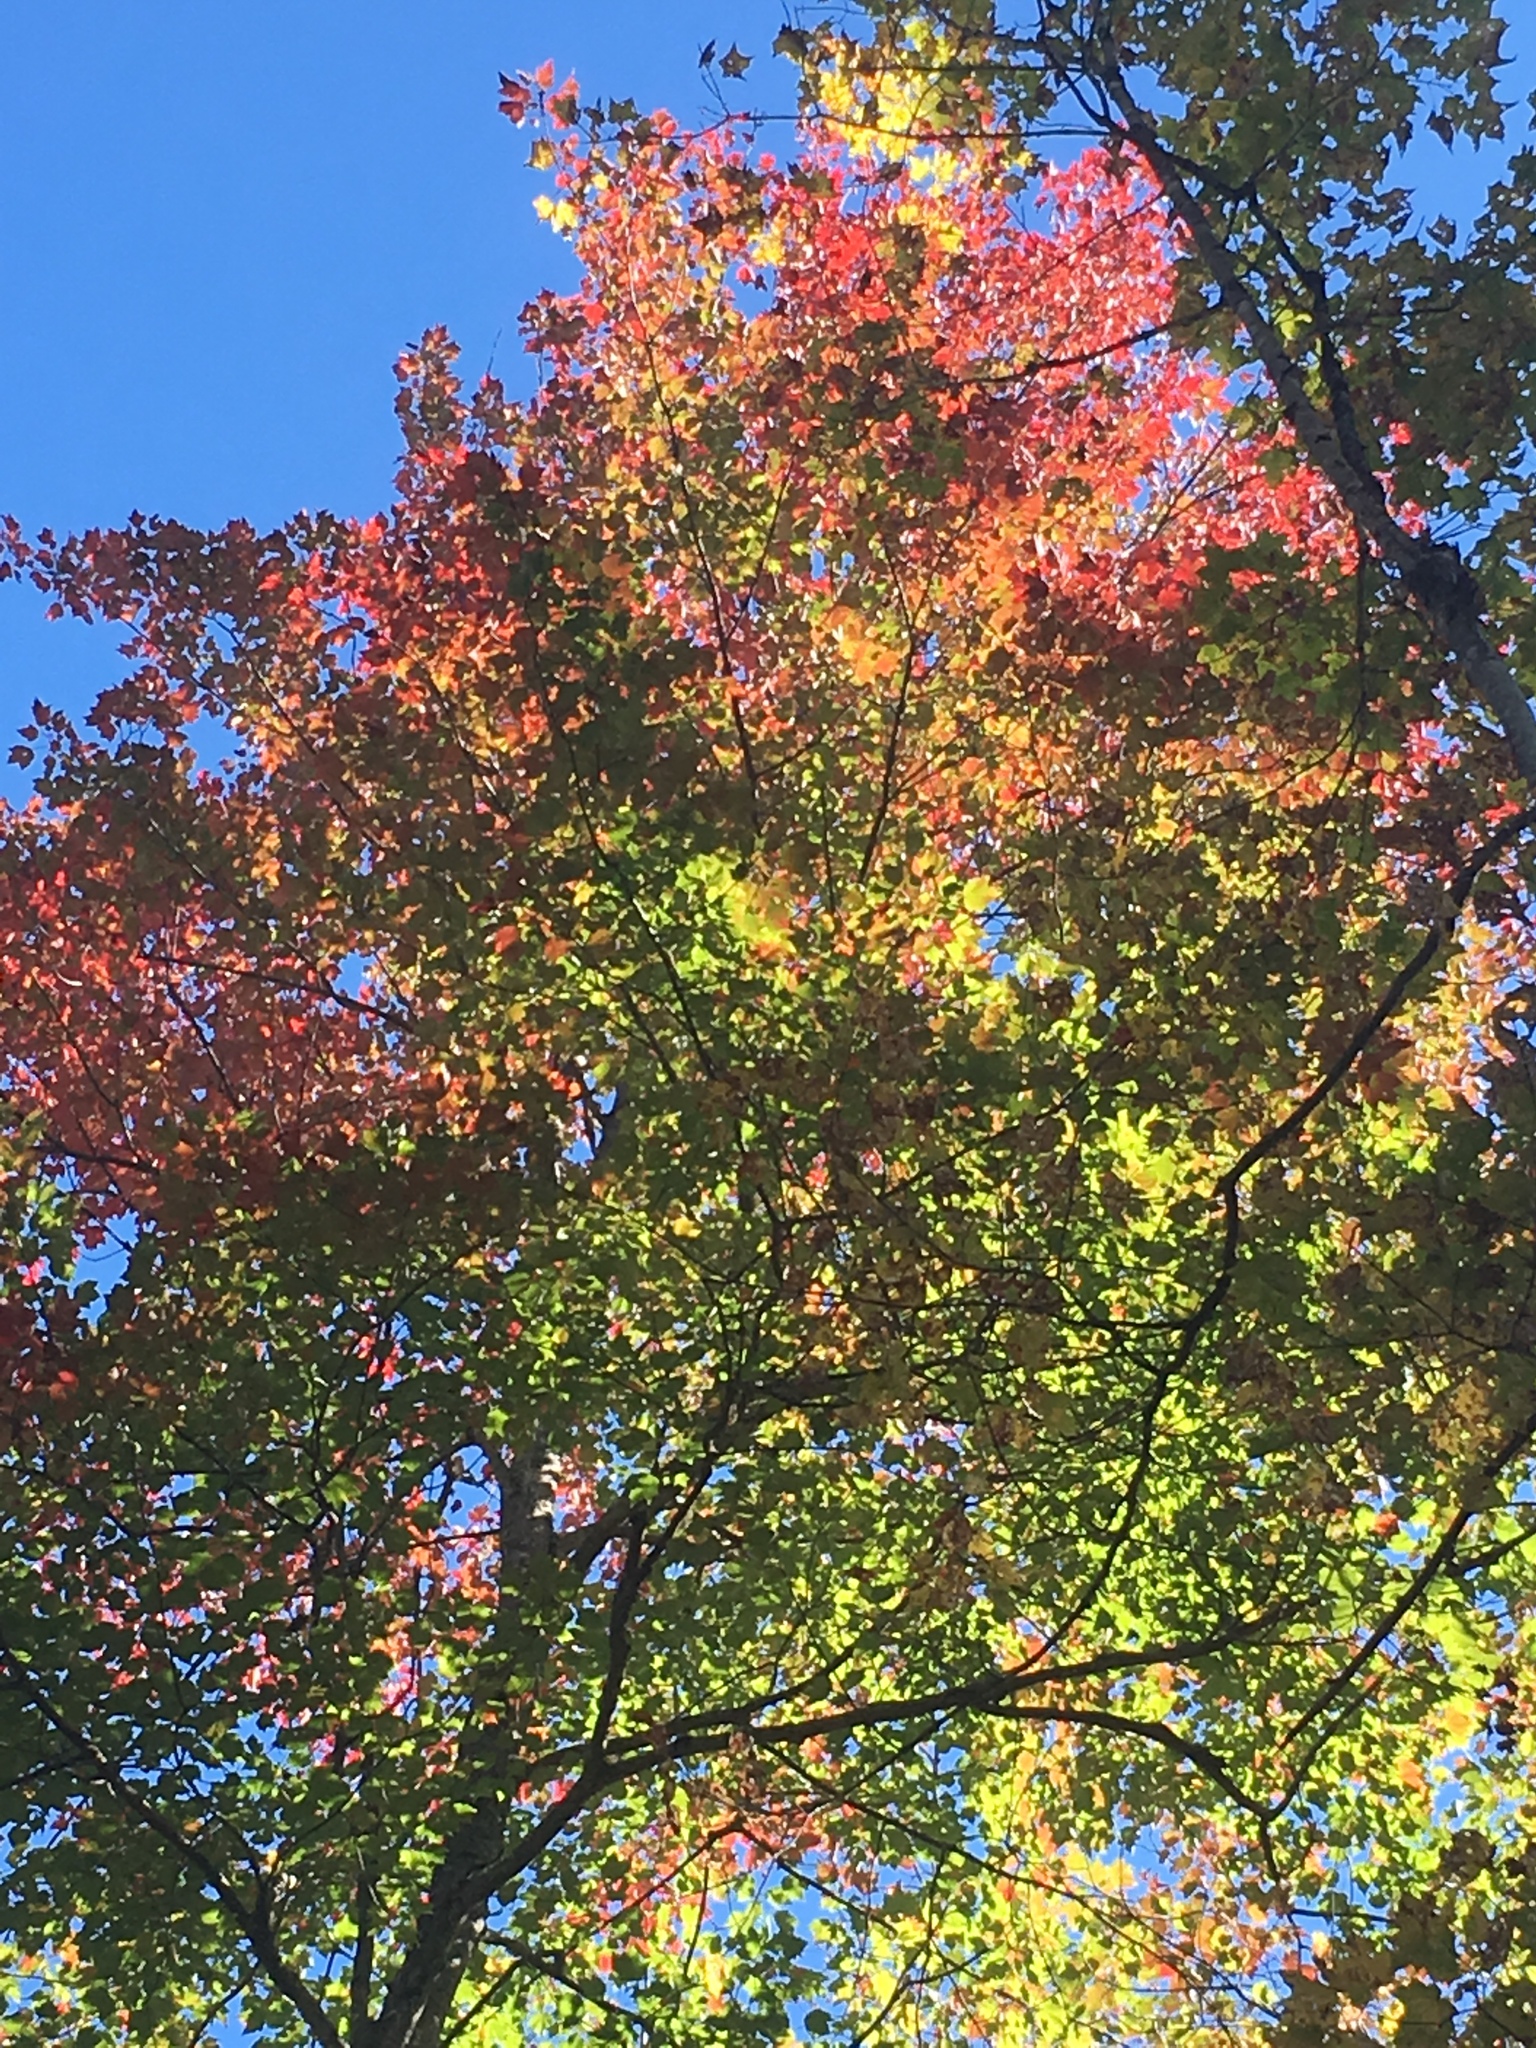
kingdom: Plantae
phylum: Tracheophyta
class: Magnoliopsida
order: Sapindales
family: Sapindaceae
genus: Acer
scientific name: Acer rubrum
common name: Red maple
